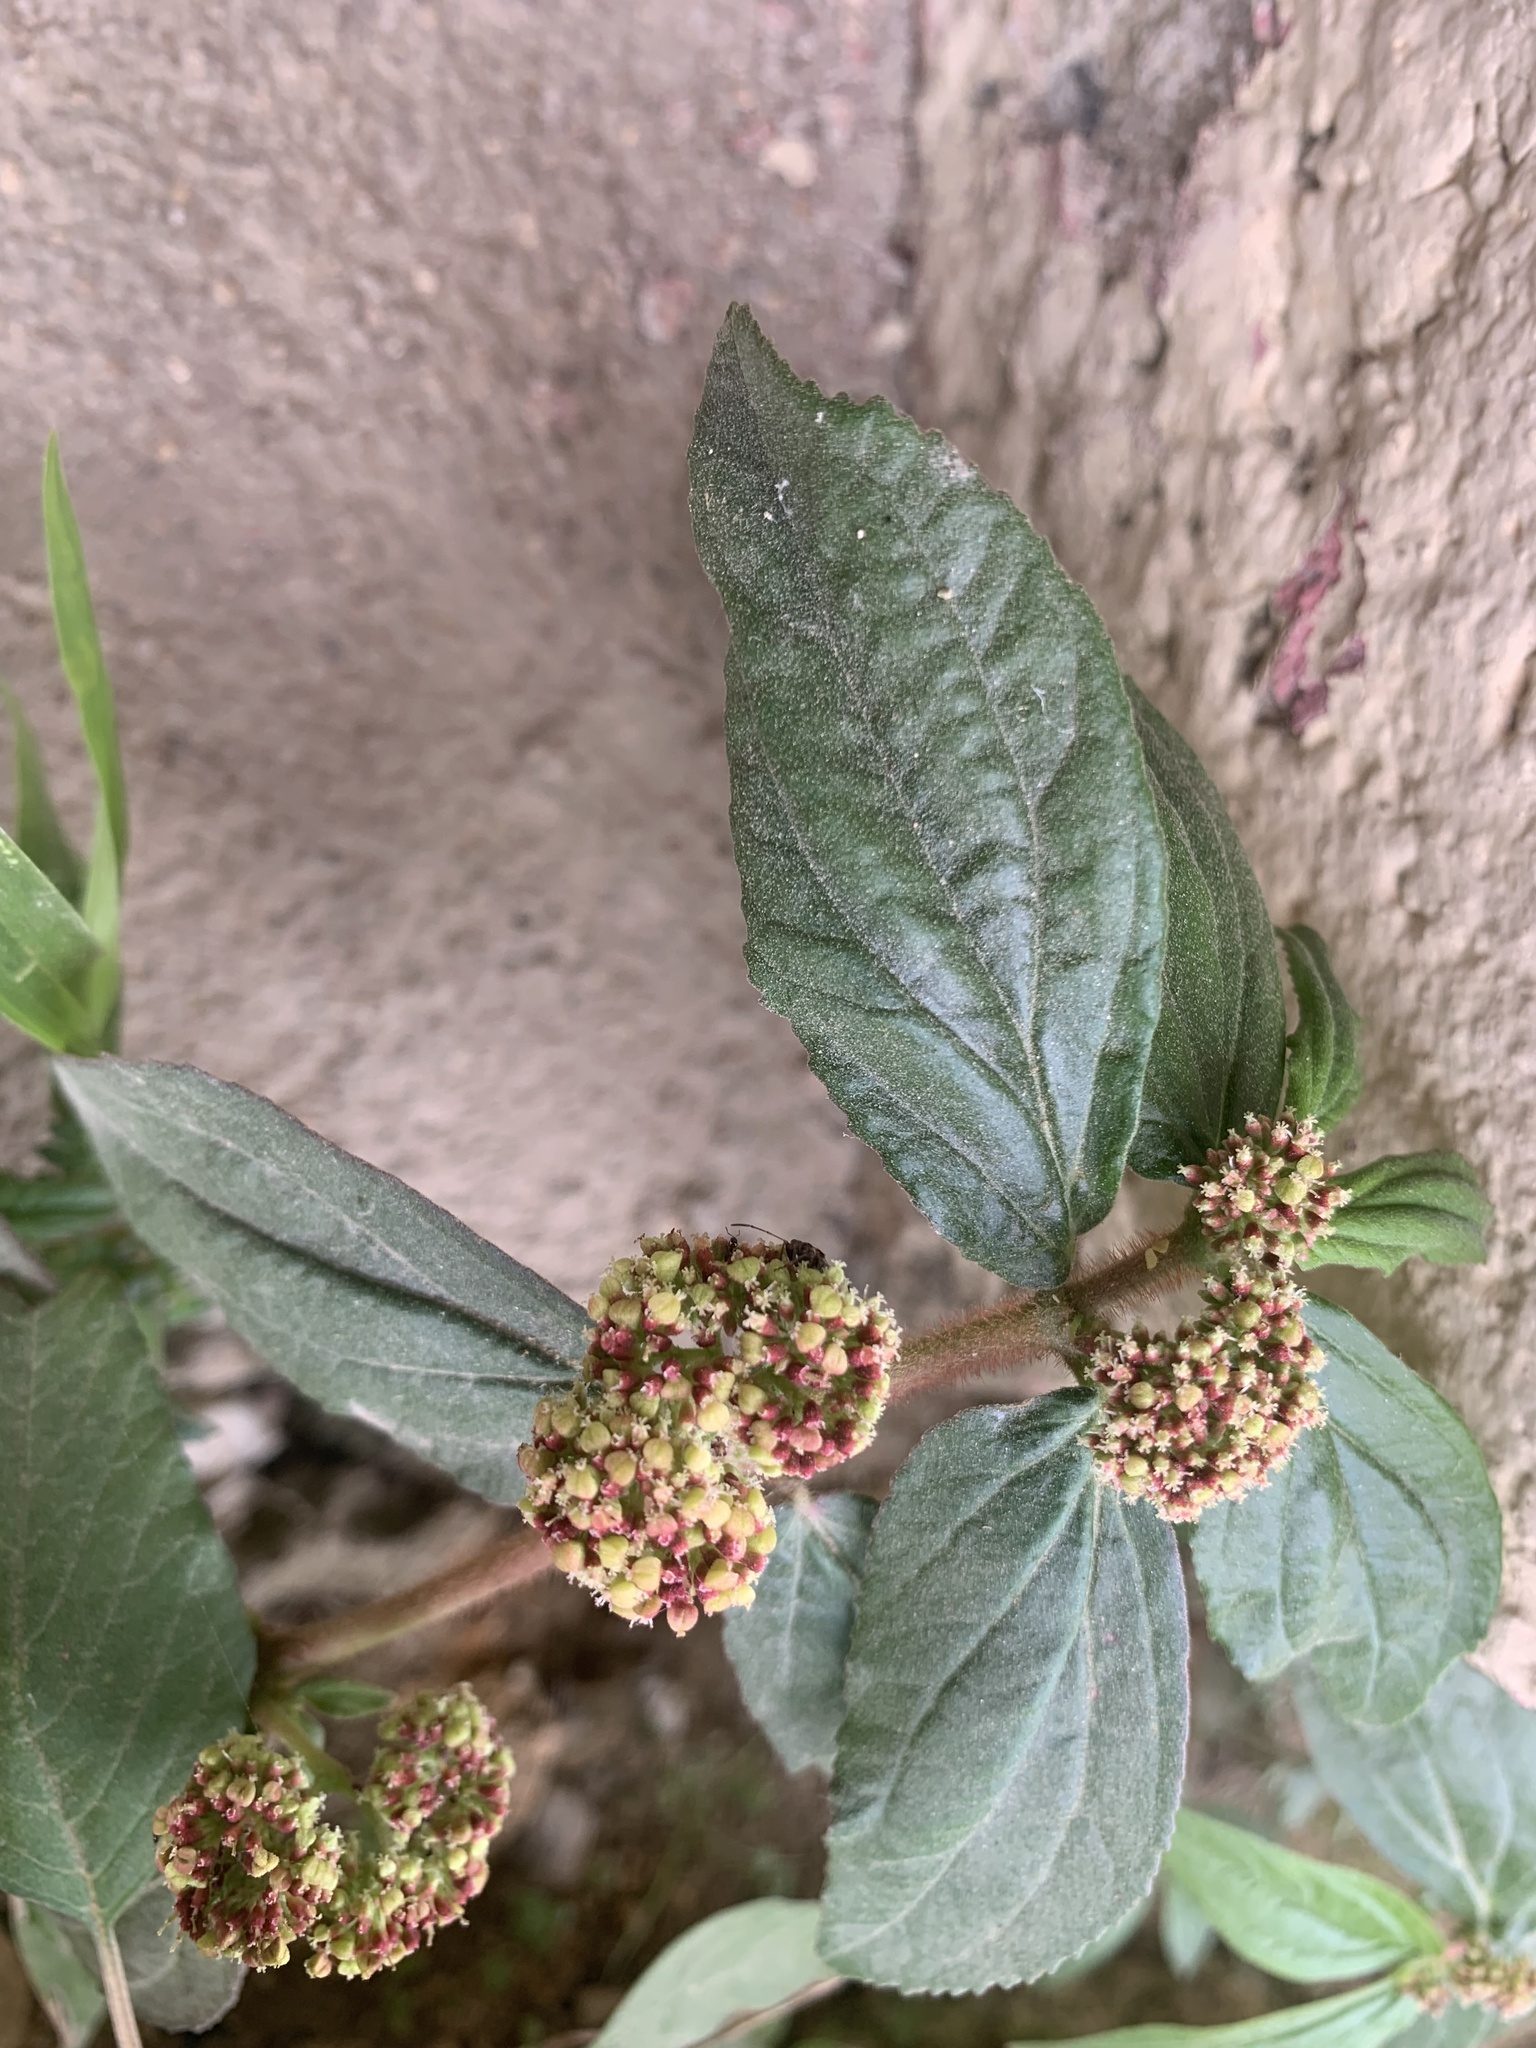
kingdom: Plantae
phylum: Tracheophyta
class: Magnoliopsida
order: Malpighiales
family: Euphorbiaceae
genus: Euphorbia
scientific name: Euphorbia hirta
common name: Pillpod sandmat
